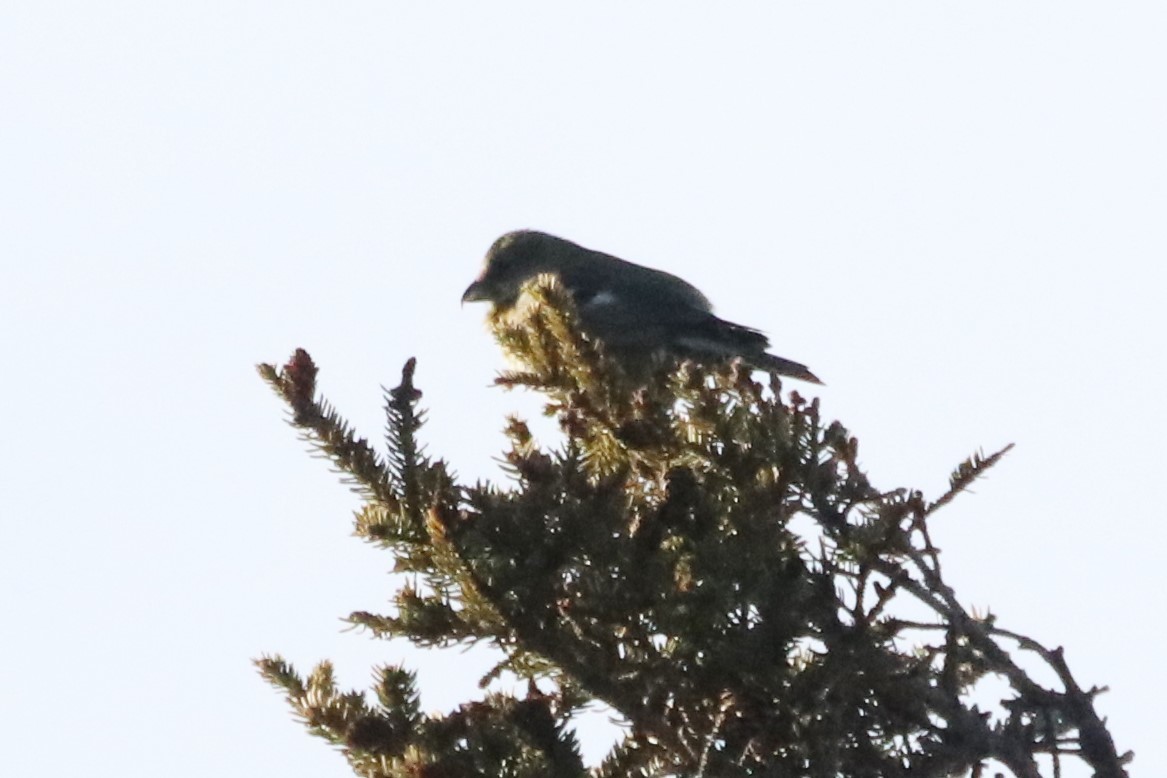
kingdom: Animalia
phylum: Chordata
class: Aves
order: Passeriformes
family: Fringillidae
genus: Loxia
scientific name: Loxia leucoptera
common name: Two-barred crossbill
